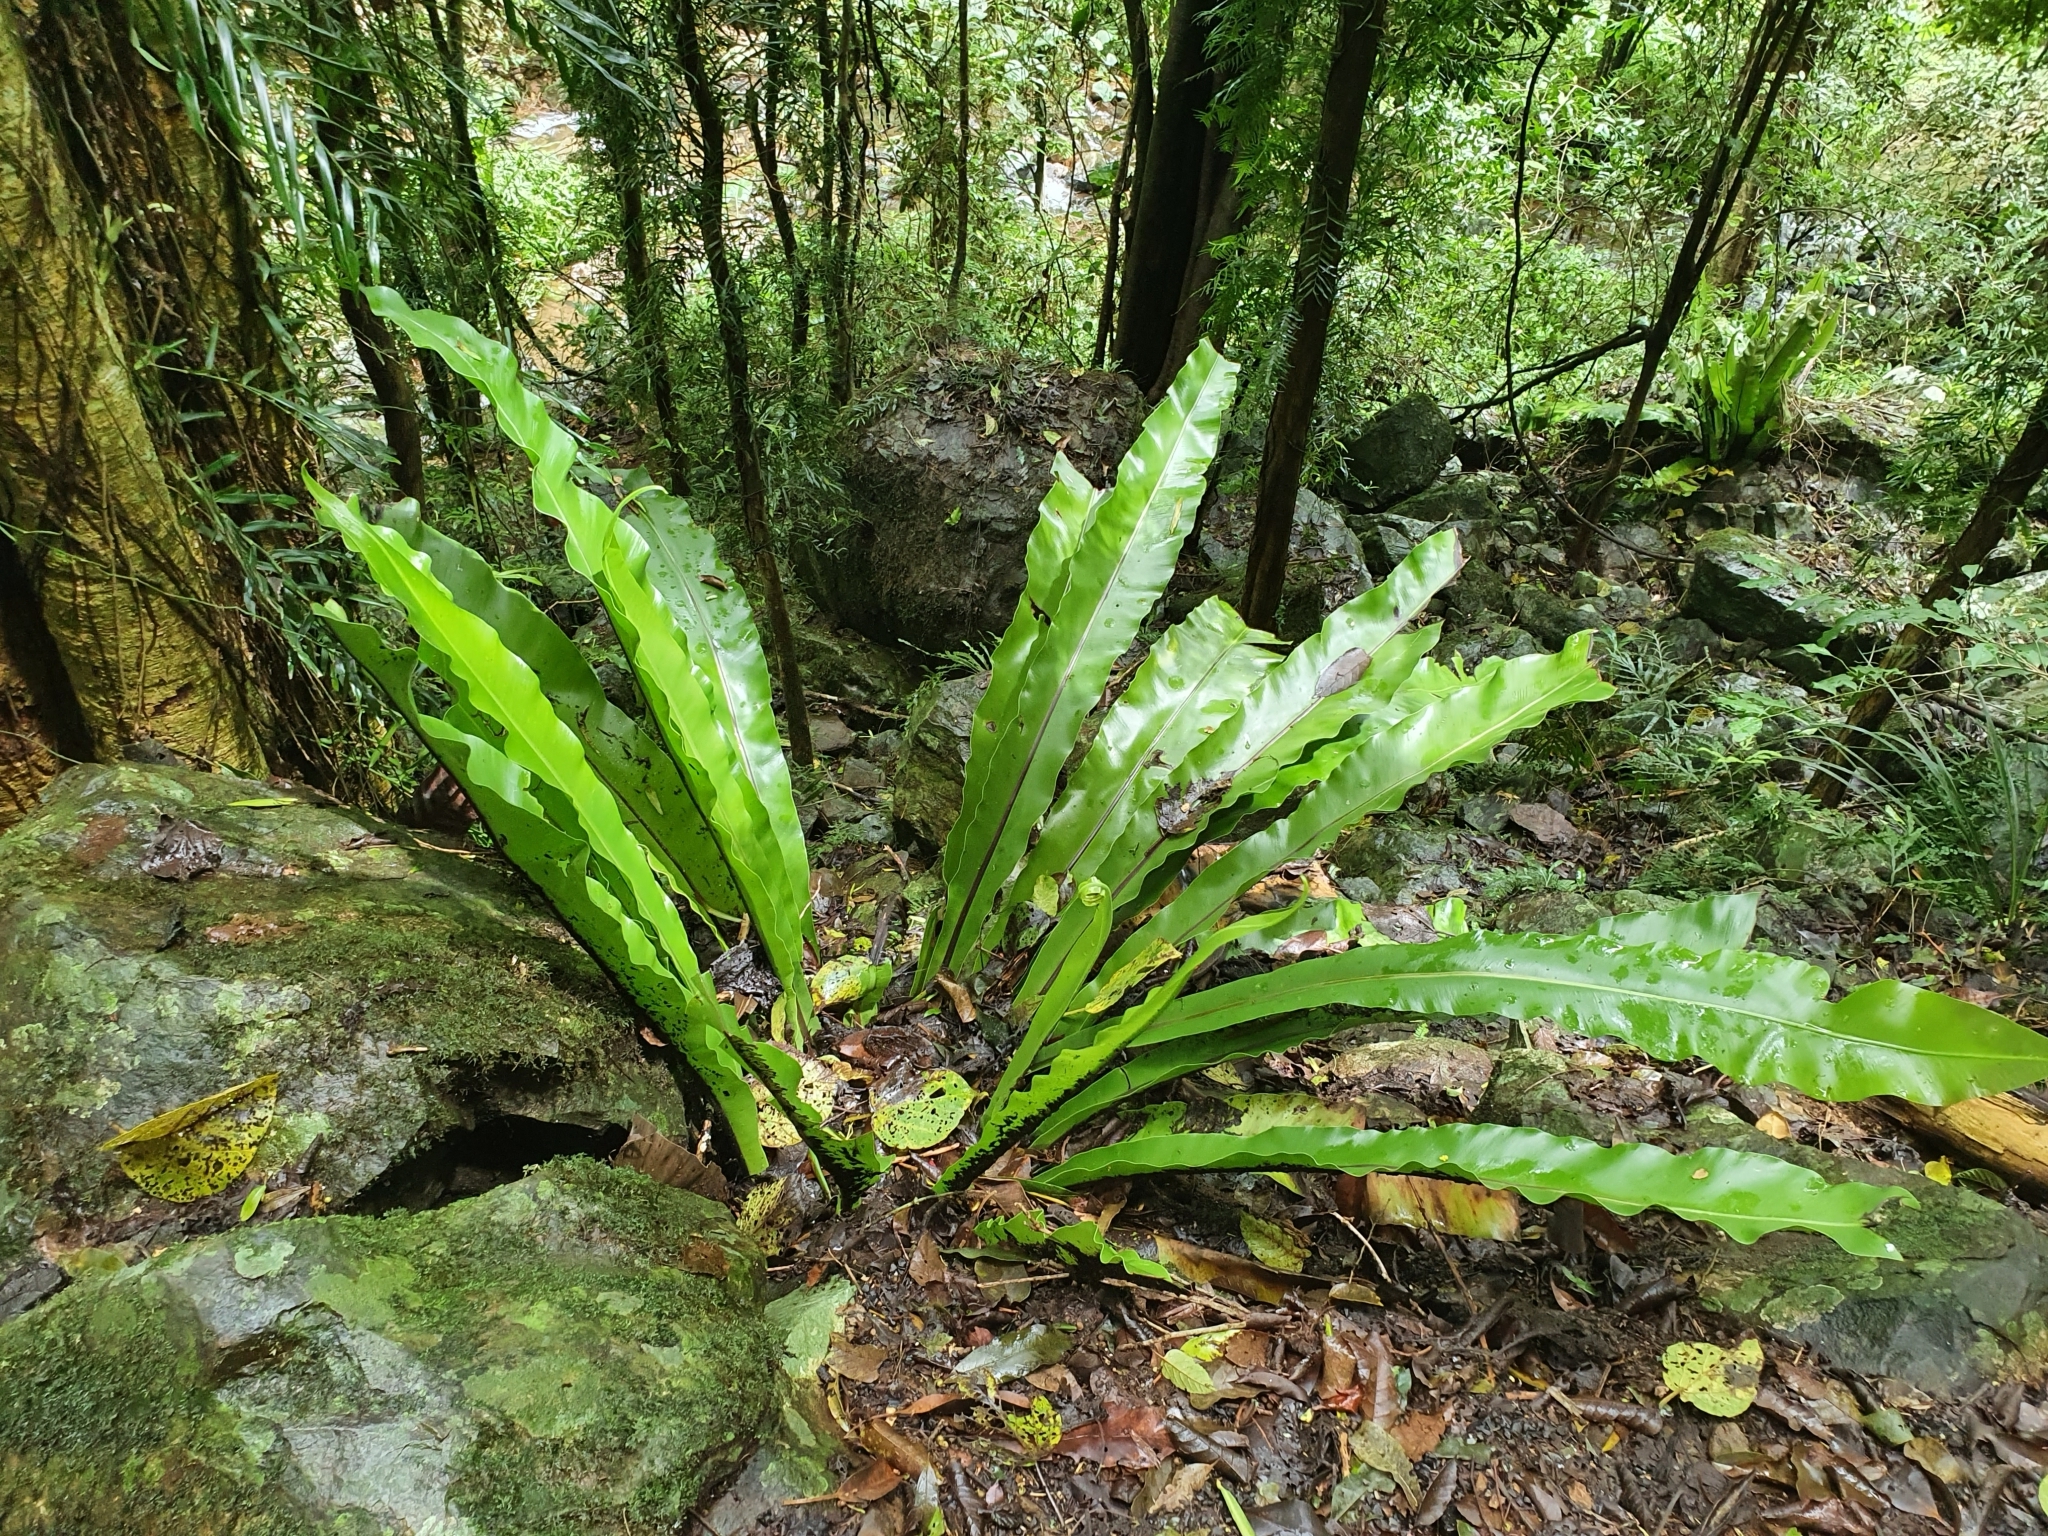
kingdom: Plantae
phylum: Tracheophyta
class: Polypodiopsida
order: Polypodiales
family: Aspleniaceae
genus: Asplenium
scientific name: Asplenium australasicum
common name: Bird's-nest fern
